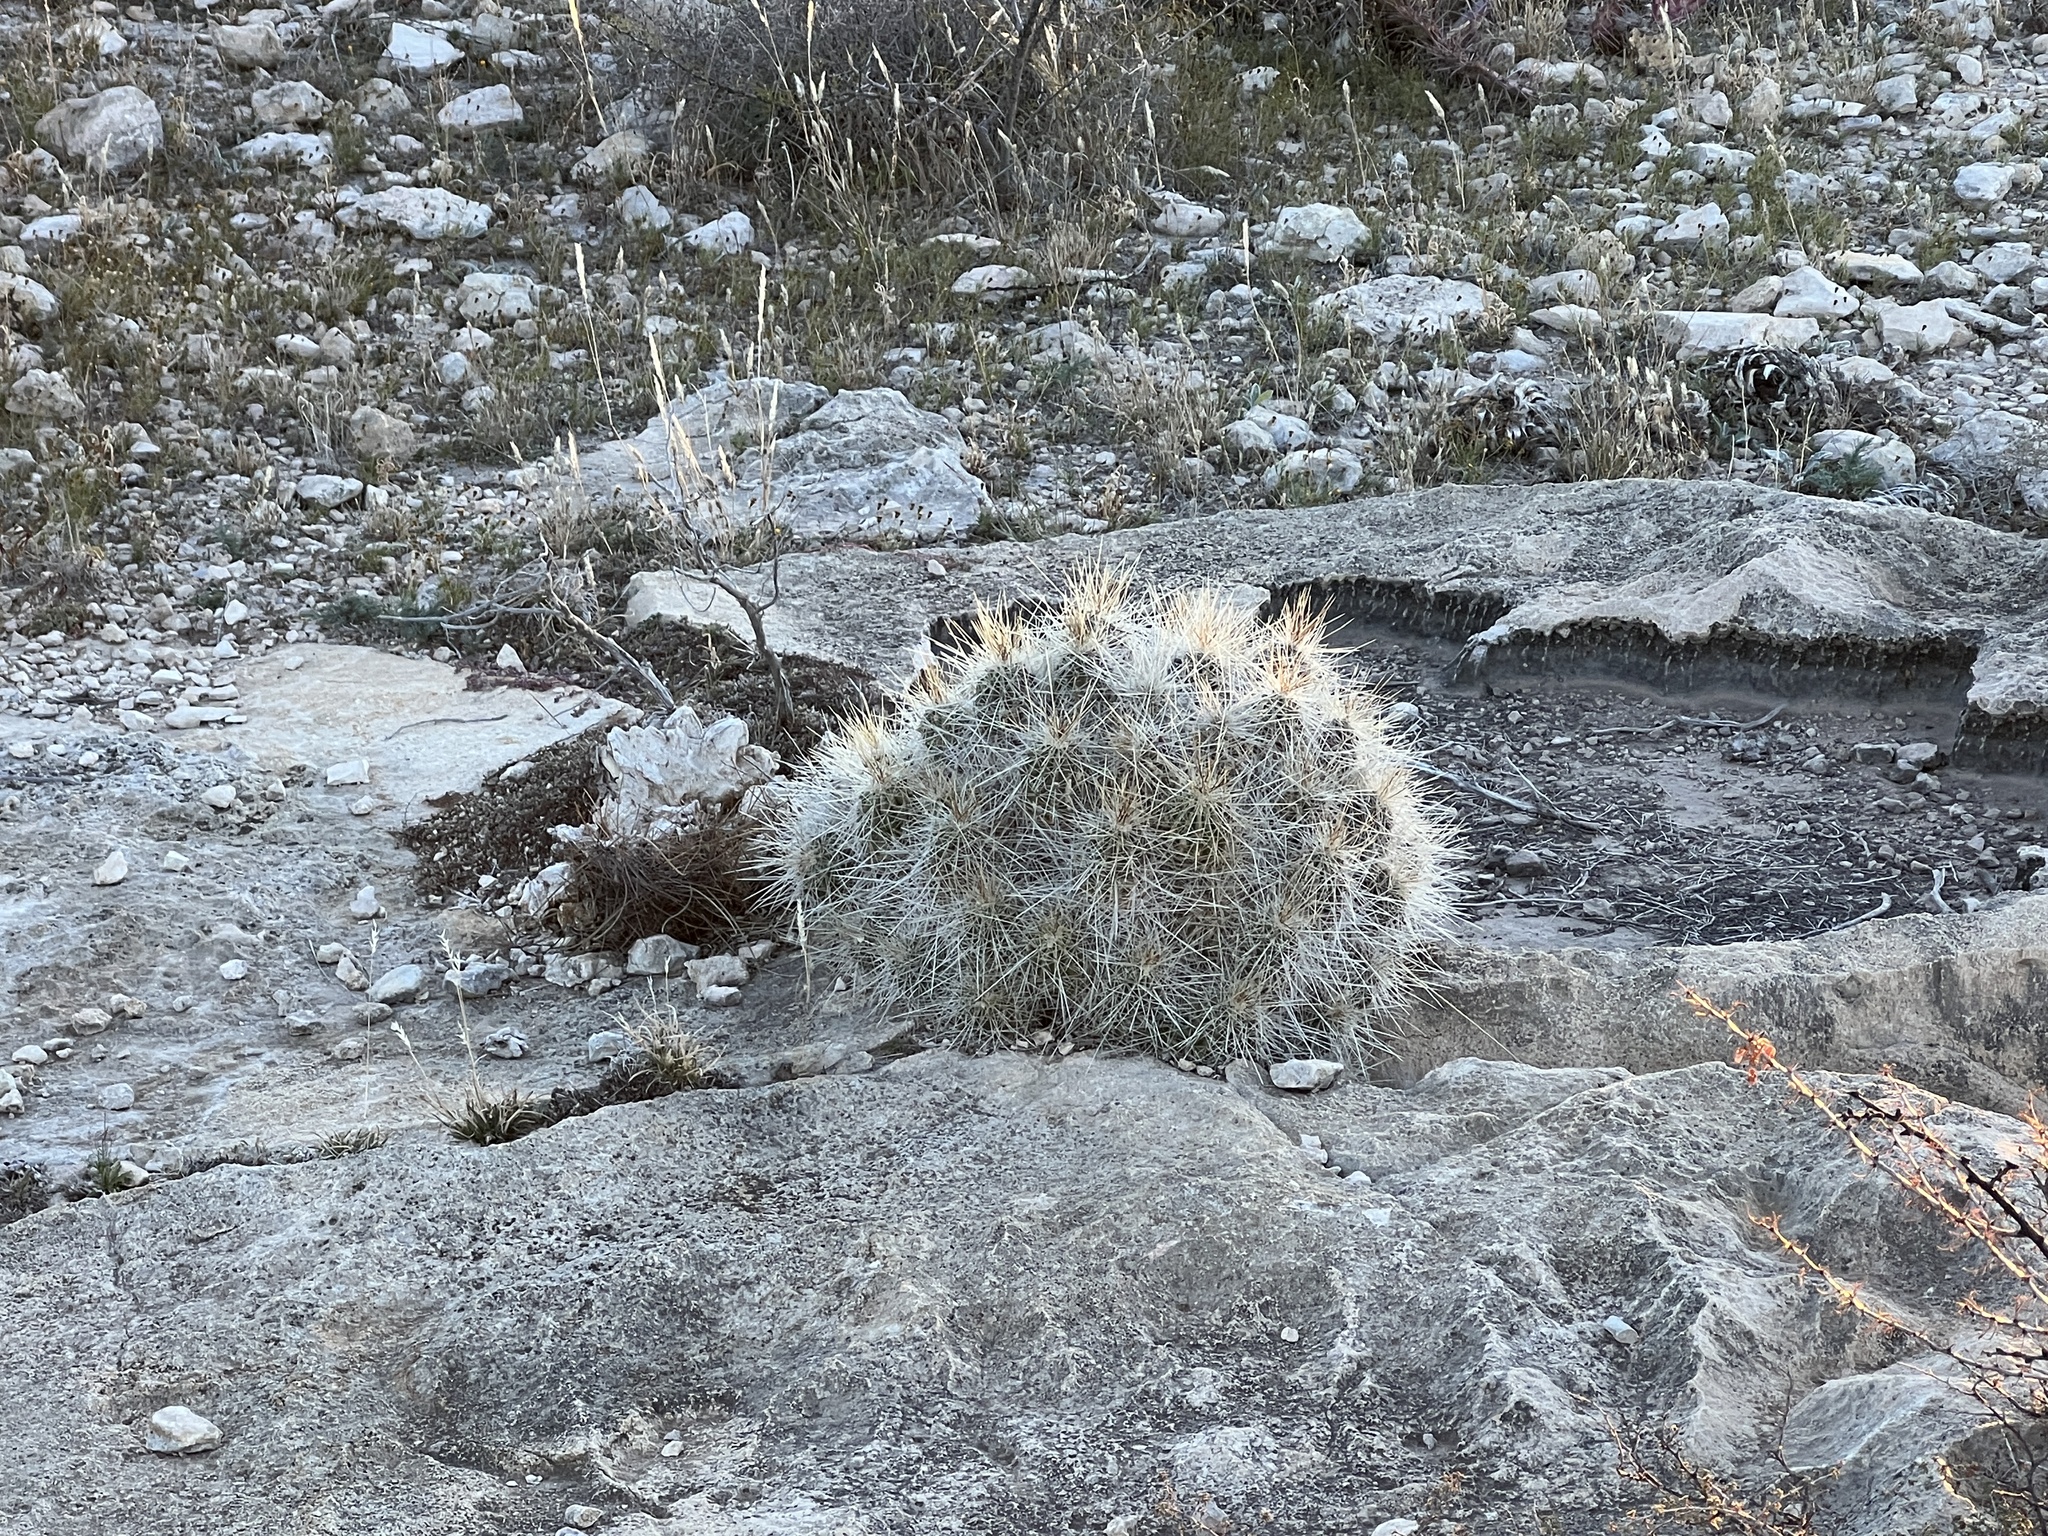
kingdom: Plantae
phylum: Tracheophyta
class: Magnoliopsida
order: Caryophyllales
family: Cactaceae
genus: Echinocereus
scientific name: Echinocereus stramineus
